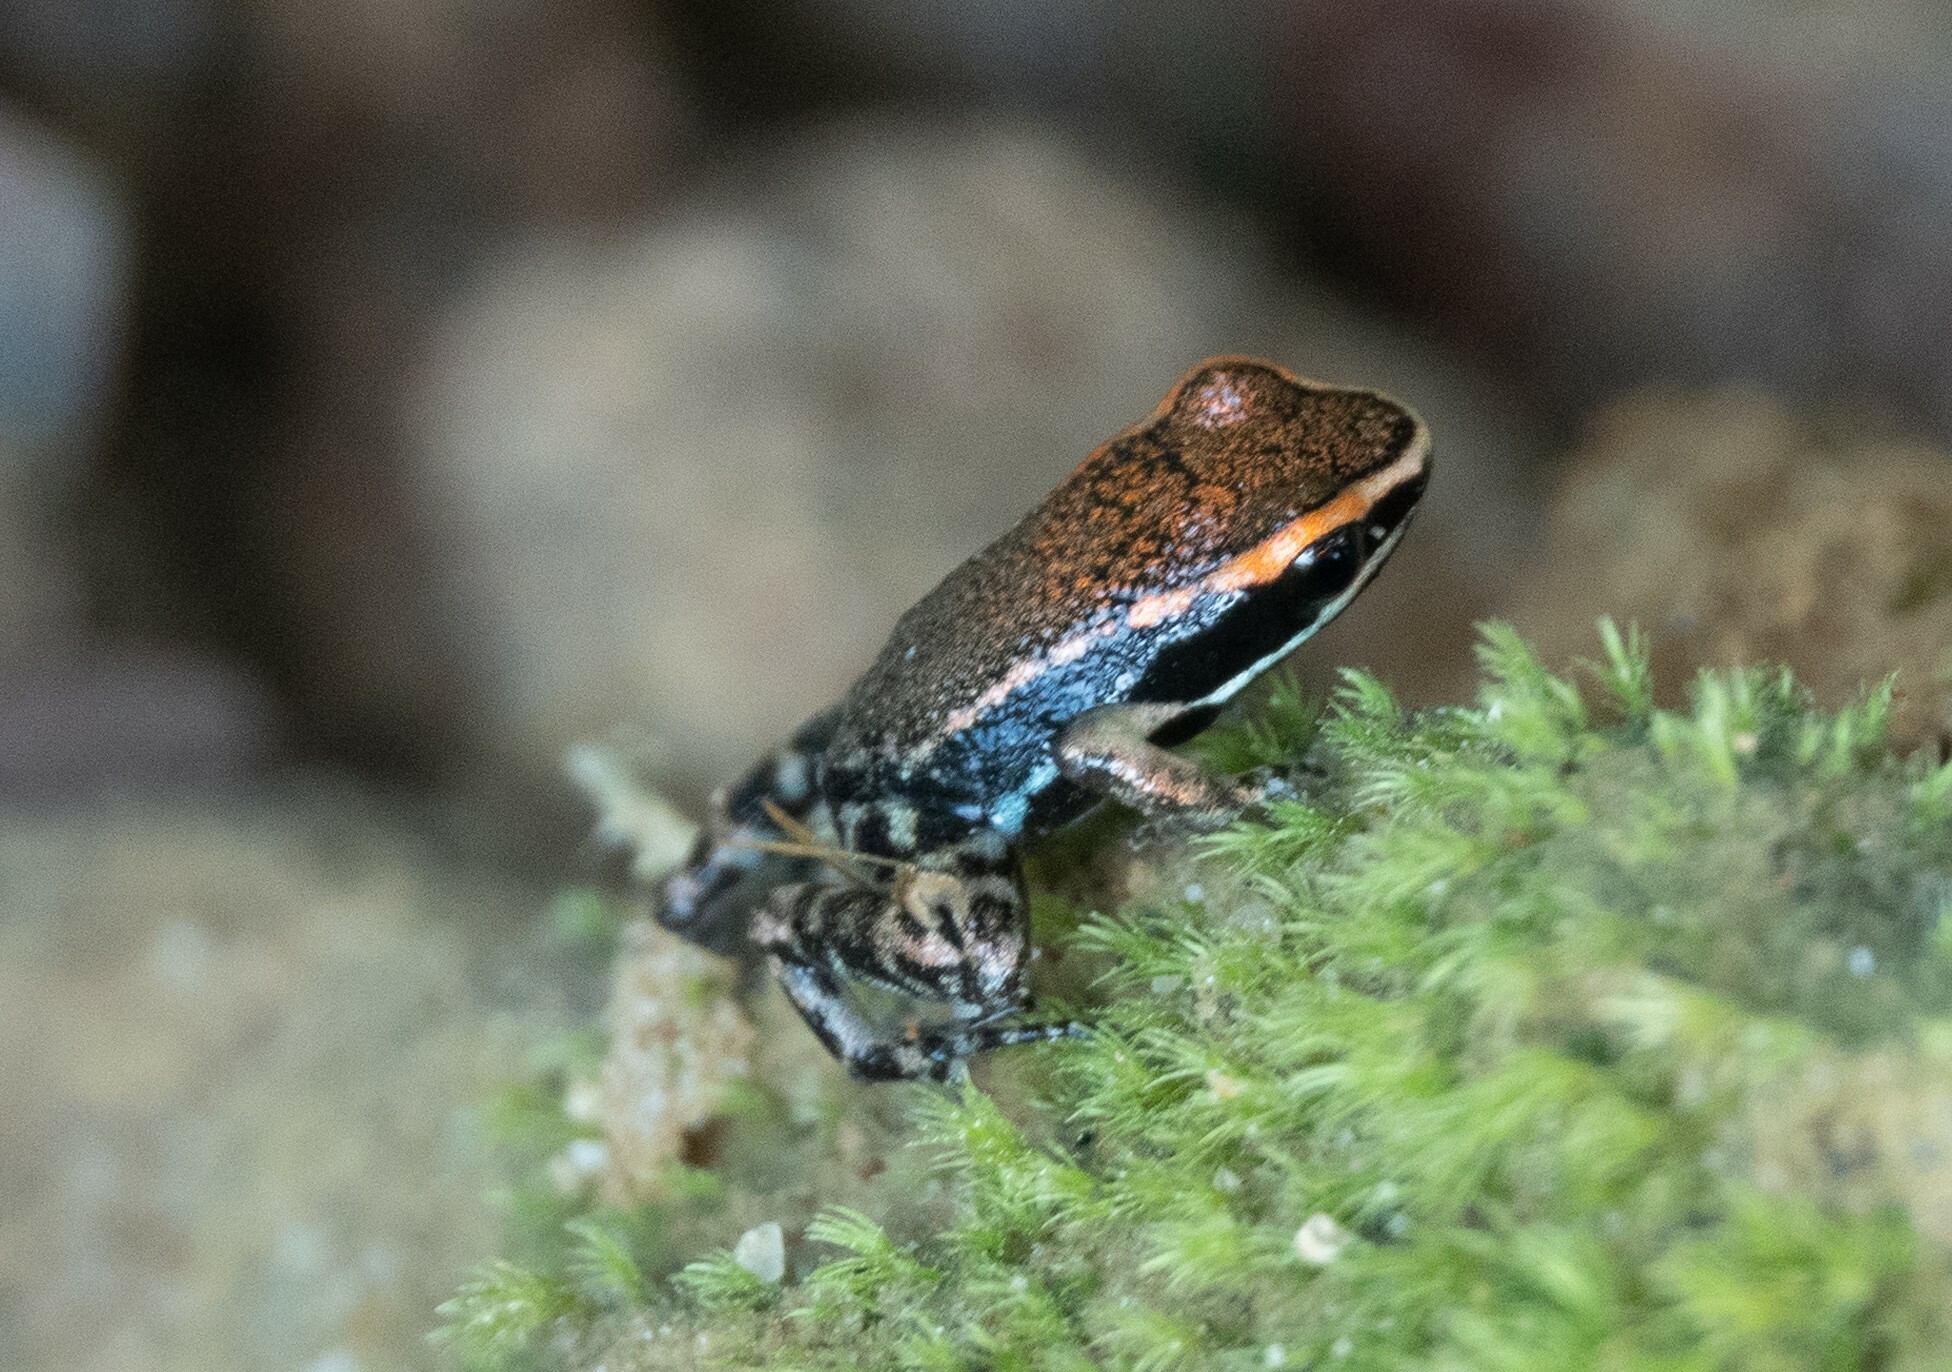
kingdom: Animalia
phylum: Chordata
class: Amphibia
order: Anura
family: Aromobatidae
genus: Allobates
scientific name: Allobates zaparo
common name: Zaparo's poison frog
